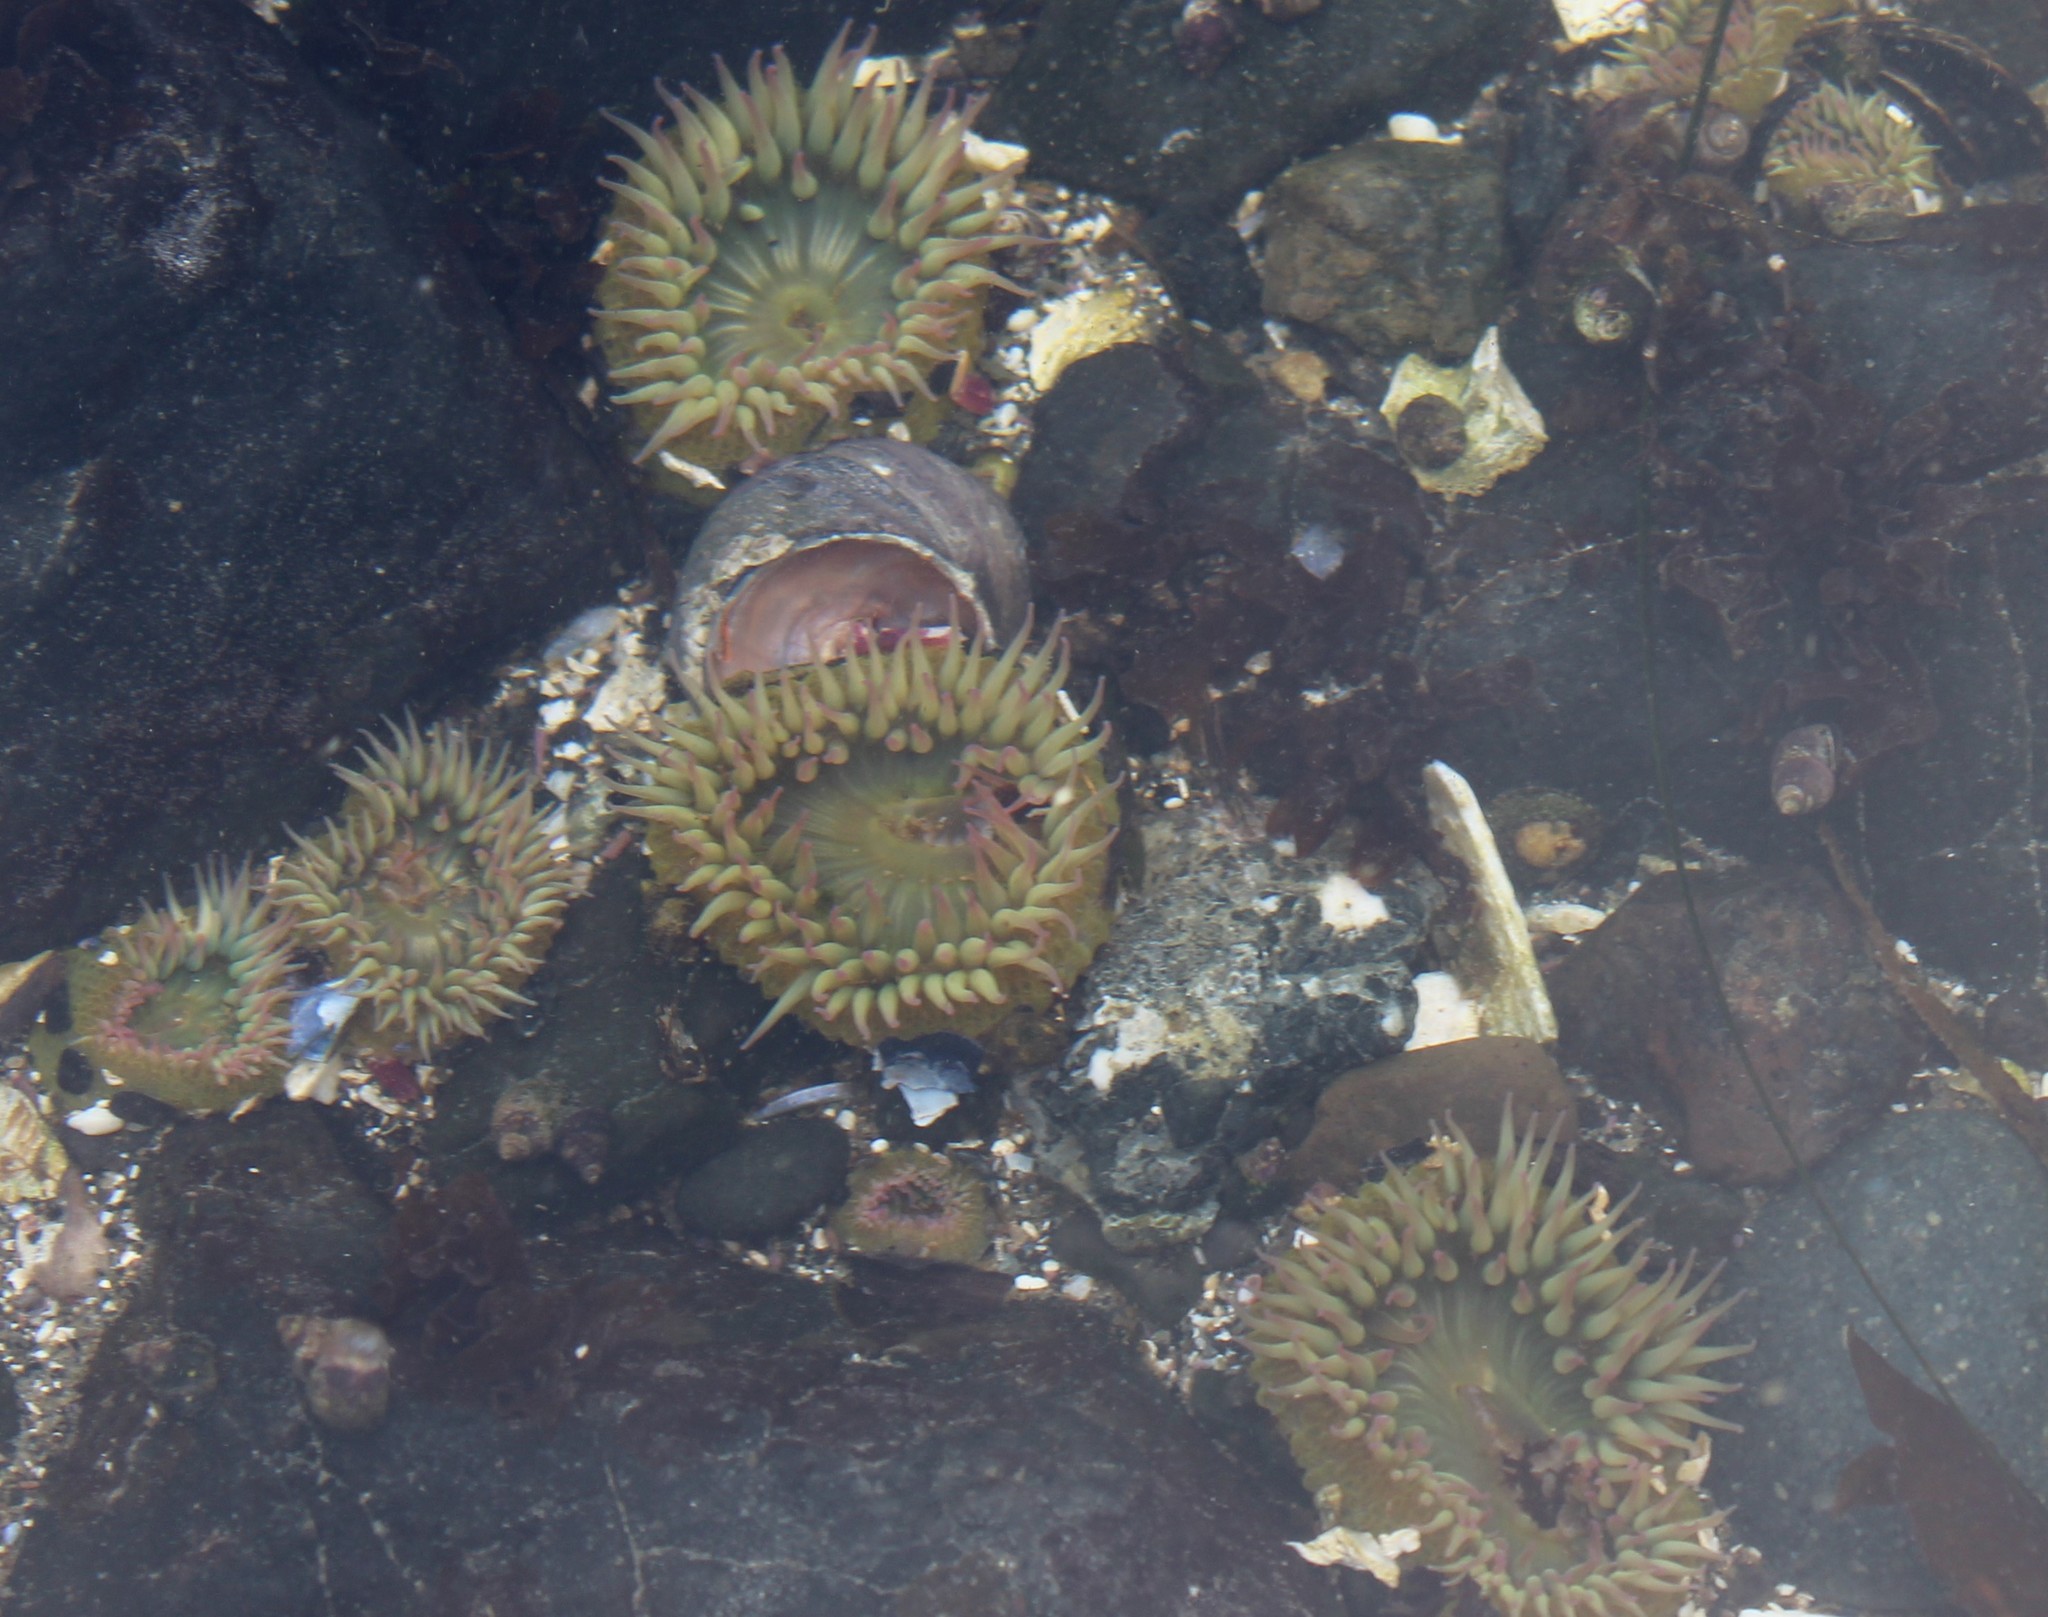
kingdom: Animalia
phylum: Cnidaria
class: Anthozoa
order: Actiniaria
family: Actiniidae
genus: Anthopleura
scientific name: Anthopleura elegantissima
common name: Clonal anemone
